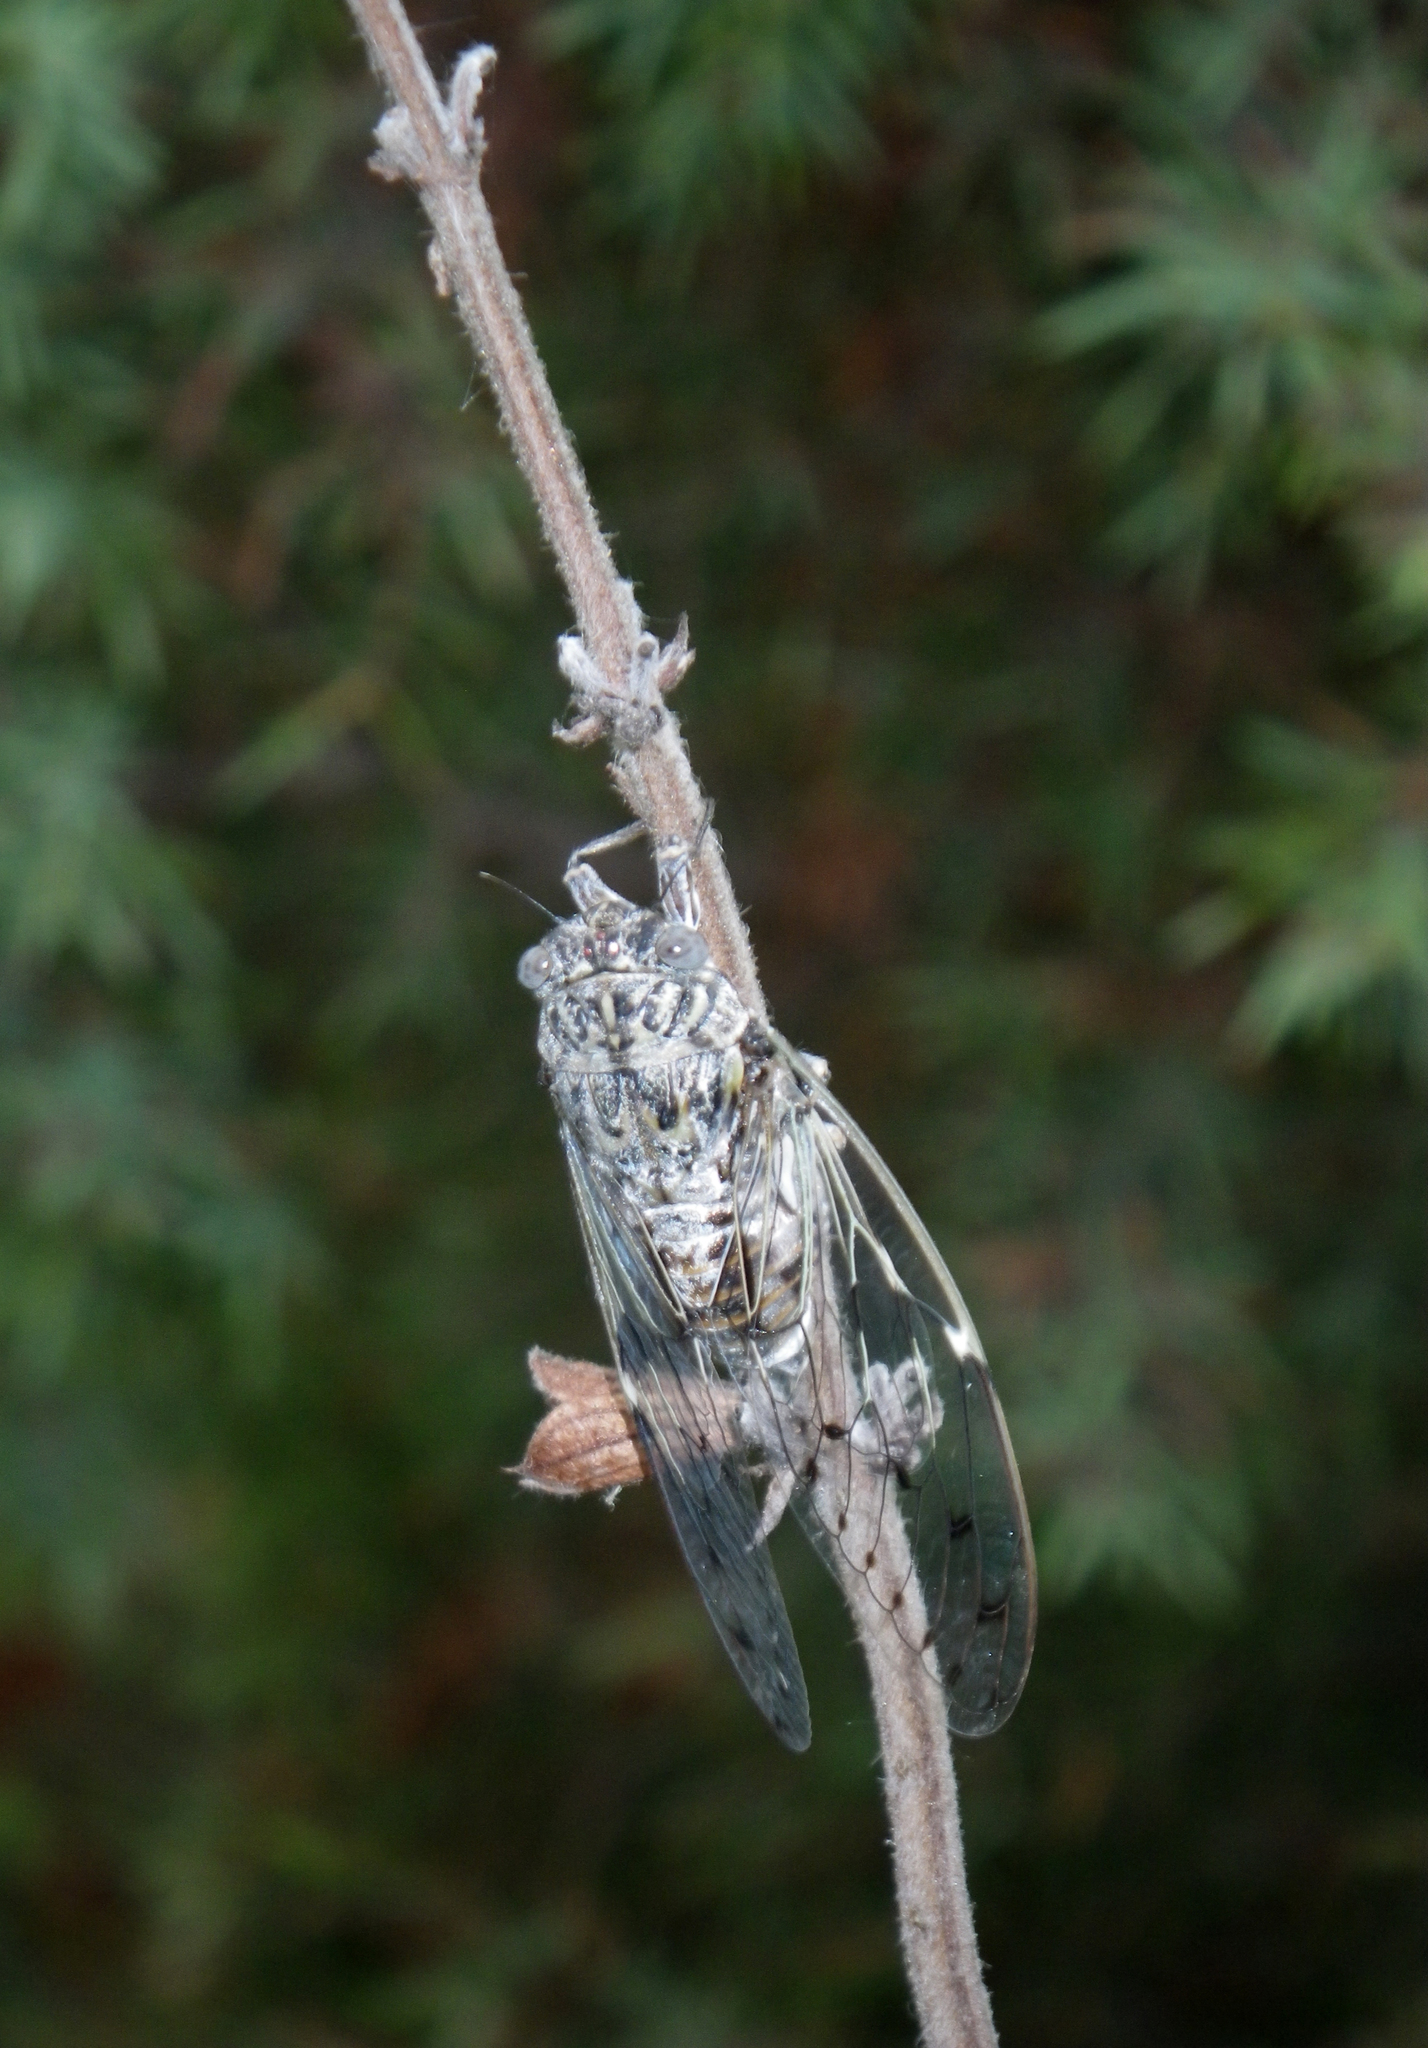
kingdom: Animalia
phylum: Arthropoda
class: Insecta
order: Hemiptera
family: Cicadidae
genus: Cicada
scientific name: Cicada orni
